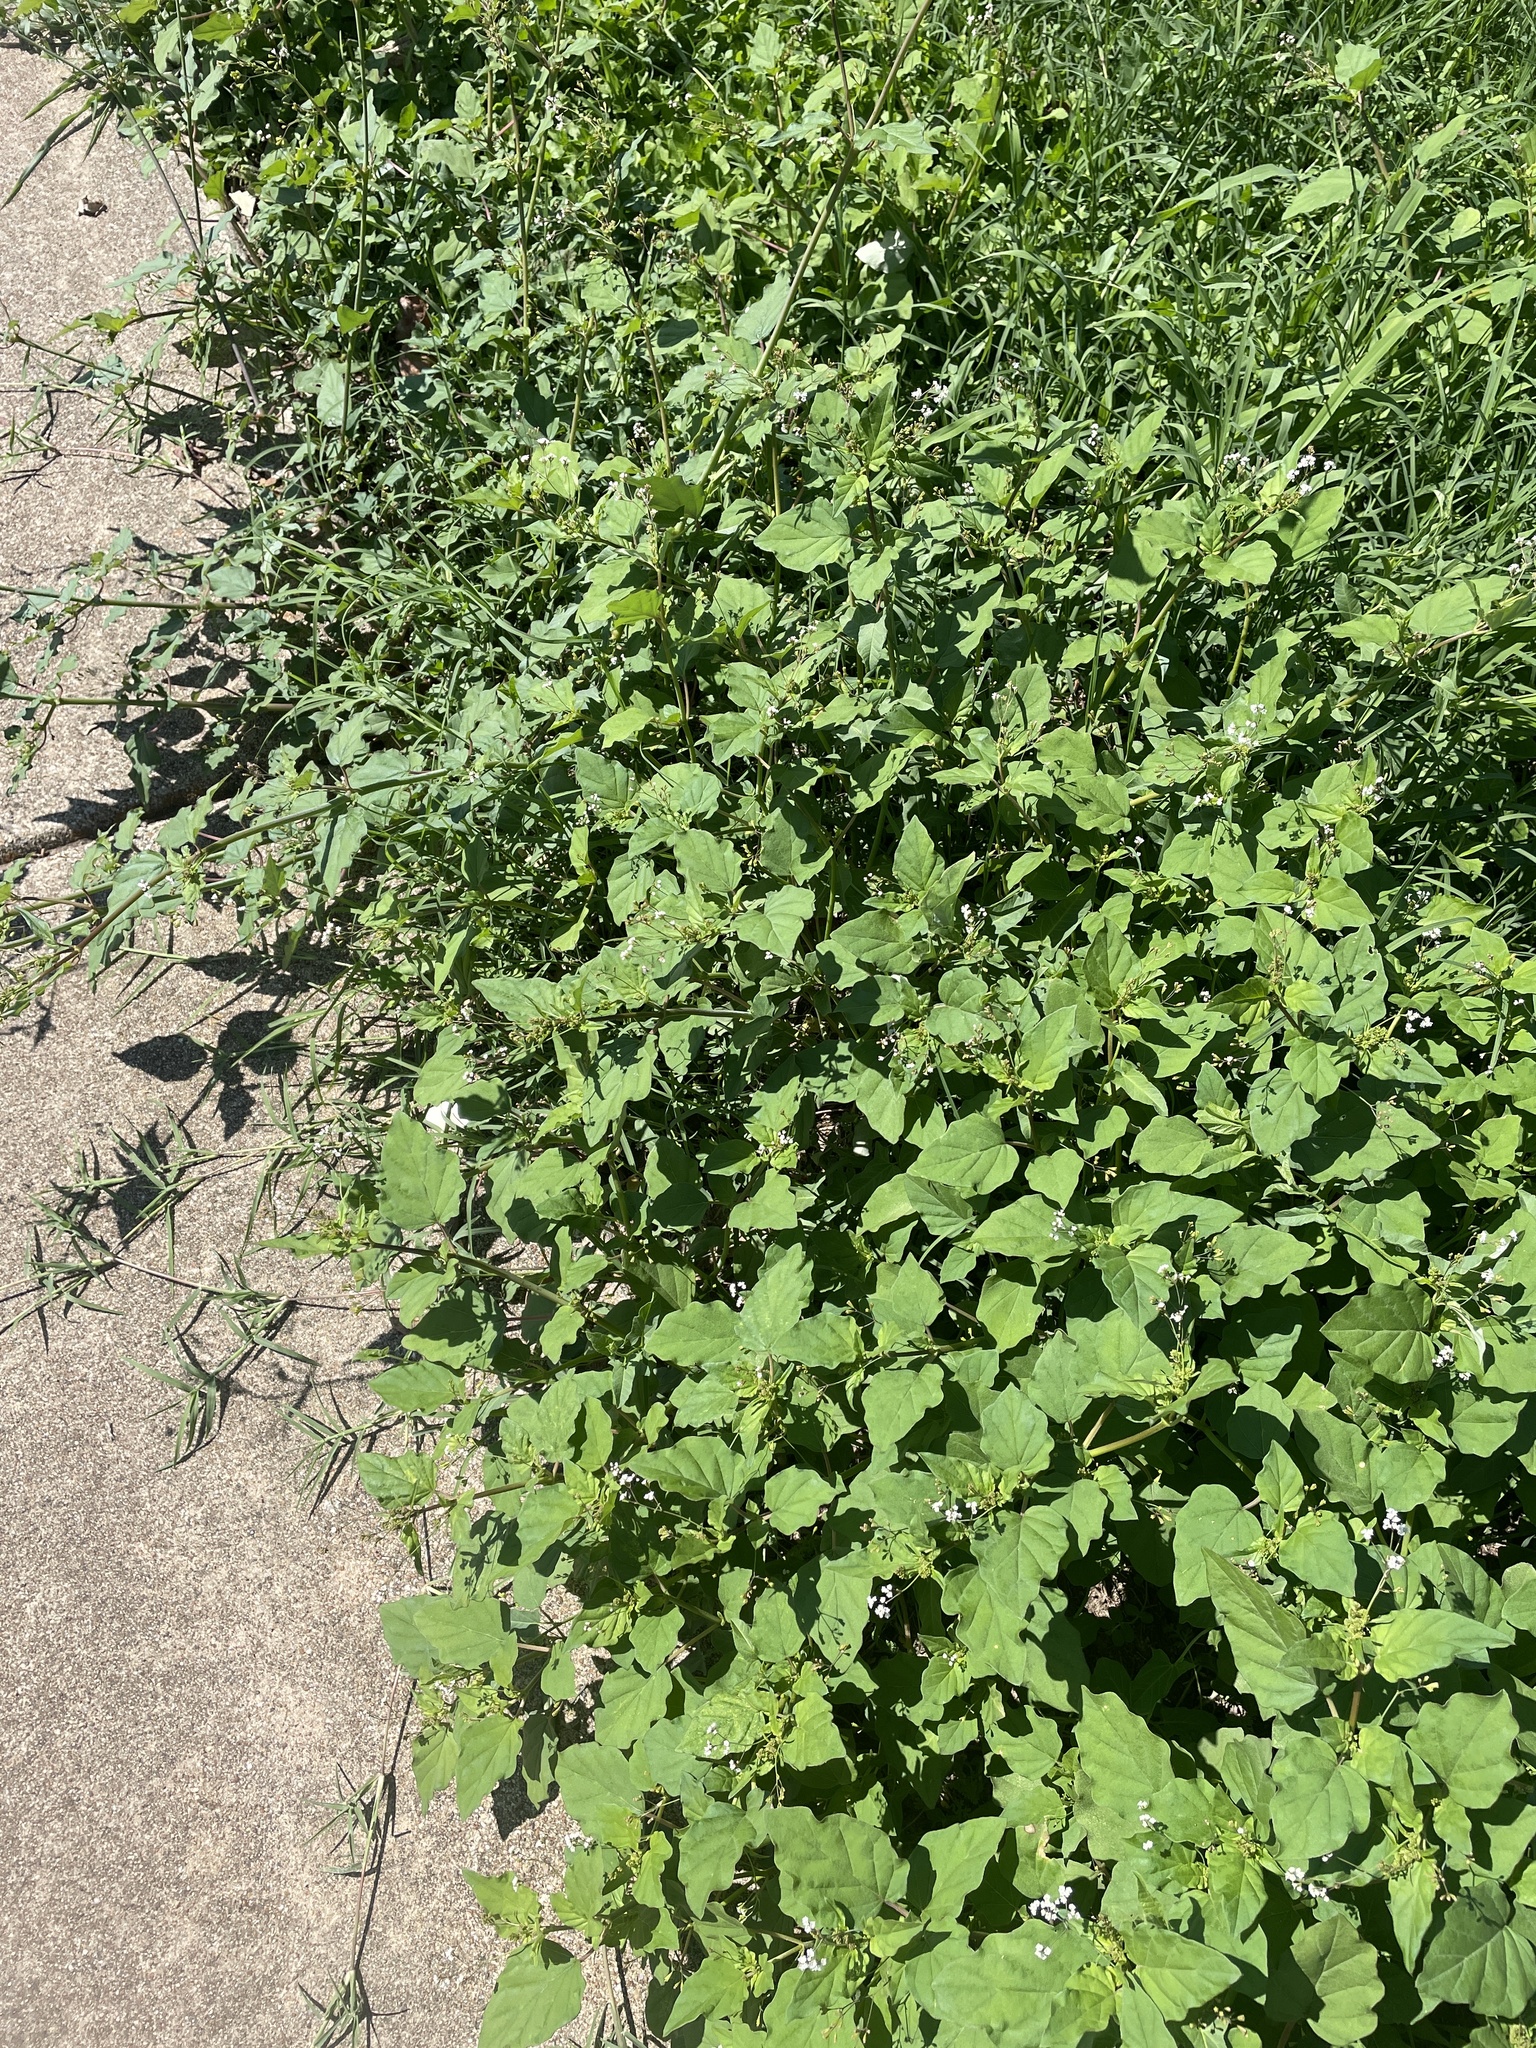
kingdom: Plantae
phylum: Tracheophyta
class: Magnoliopsida
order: Caryophyllales
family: Nyctaginaceae
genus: Boerhavia
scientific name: Boerhavia erecta
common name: Erect spiderling
